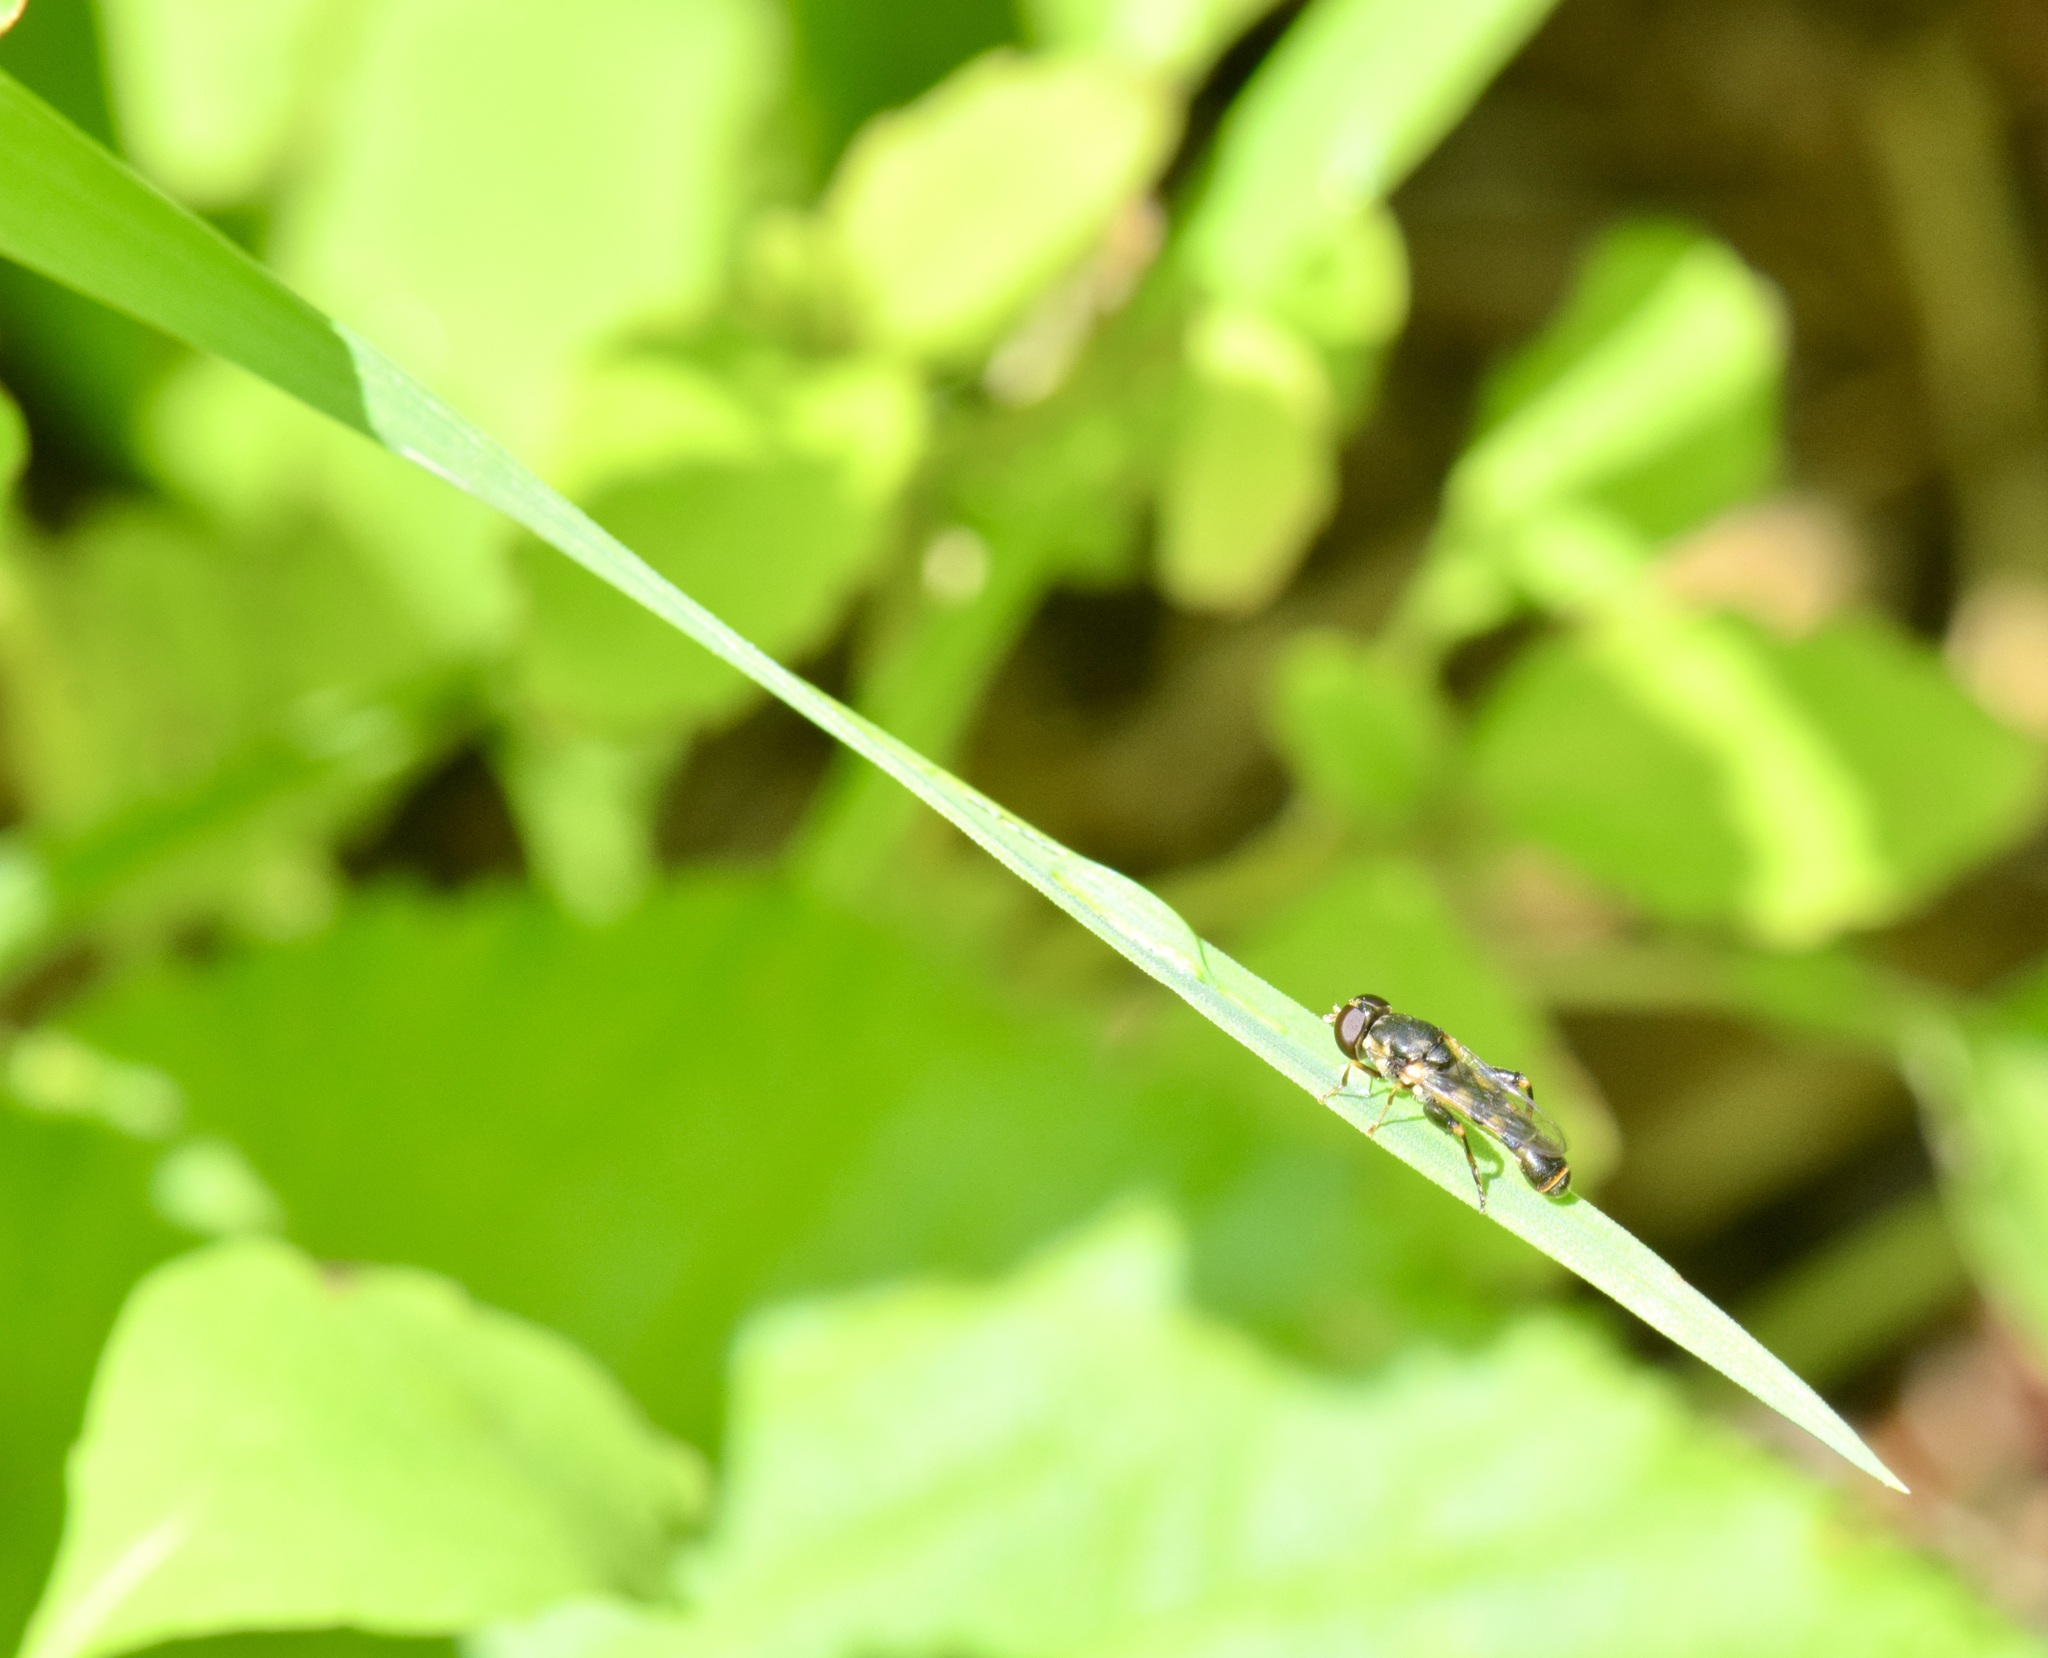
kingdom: Animalia
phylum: Arthropoda
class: Insecta
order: Diptera
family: Syrphidae
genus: Syritta
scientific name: Syritta pipiens
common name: Hover fly
